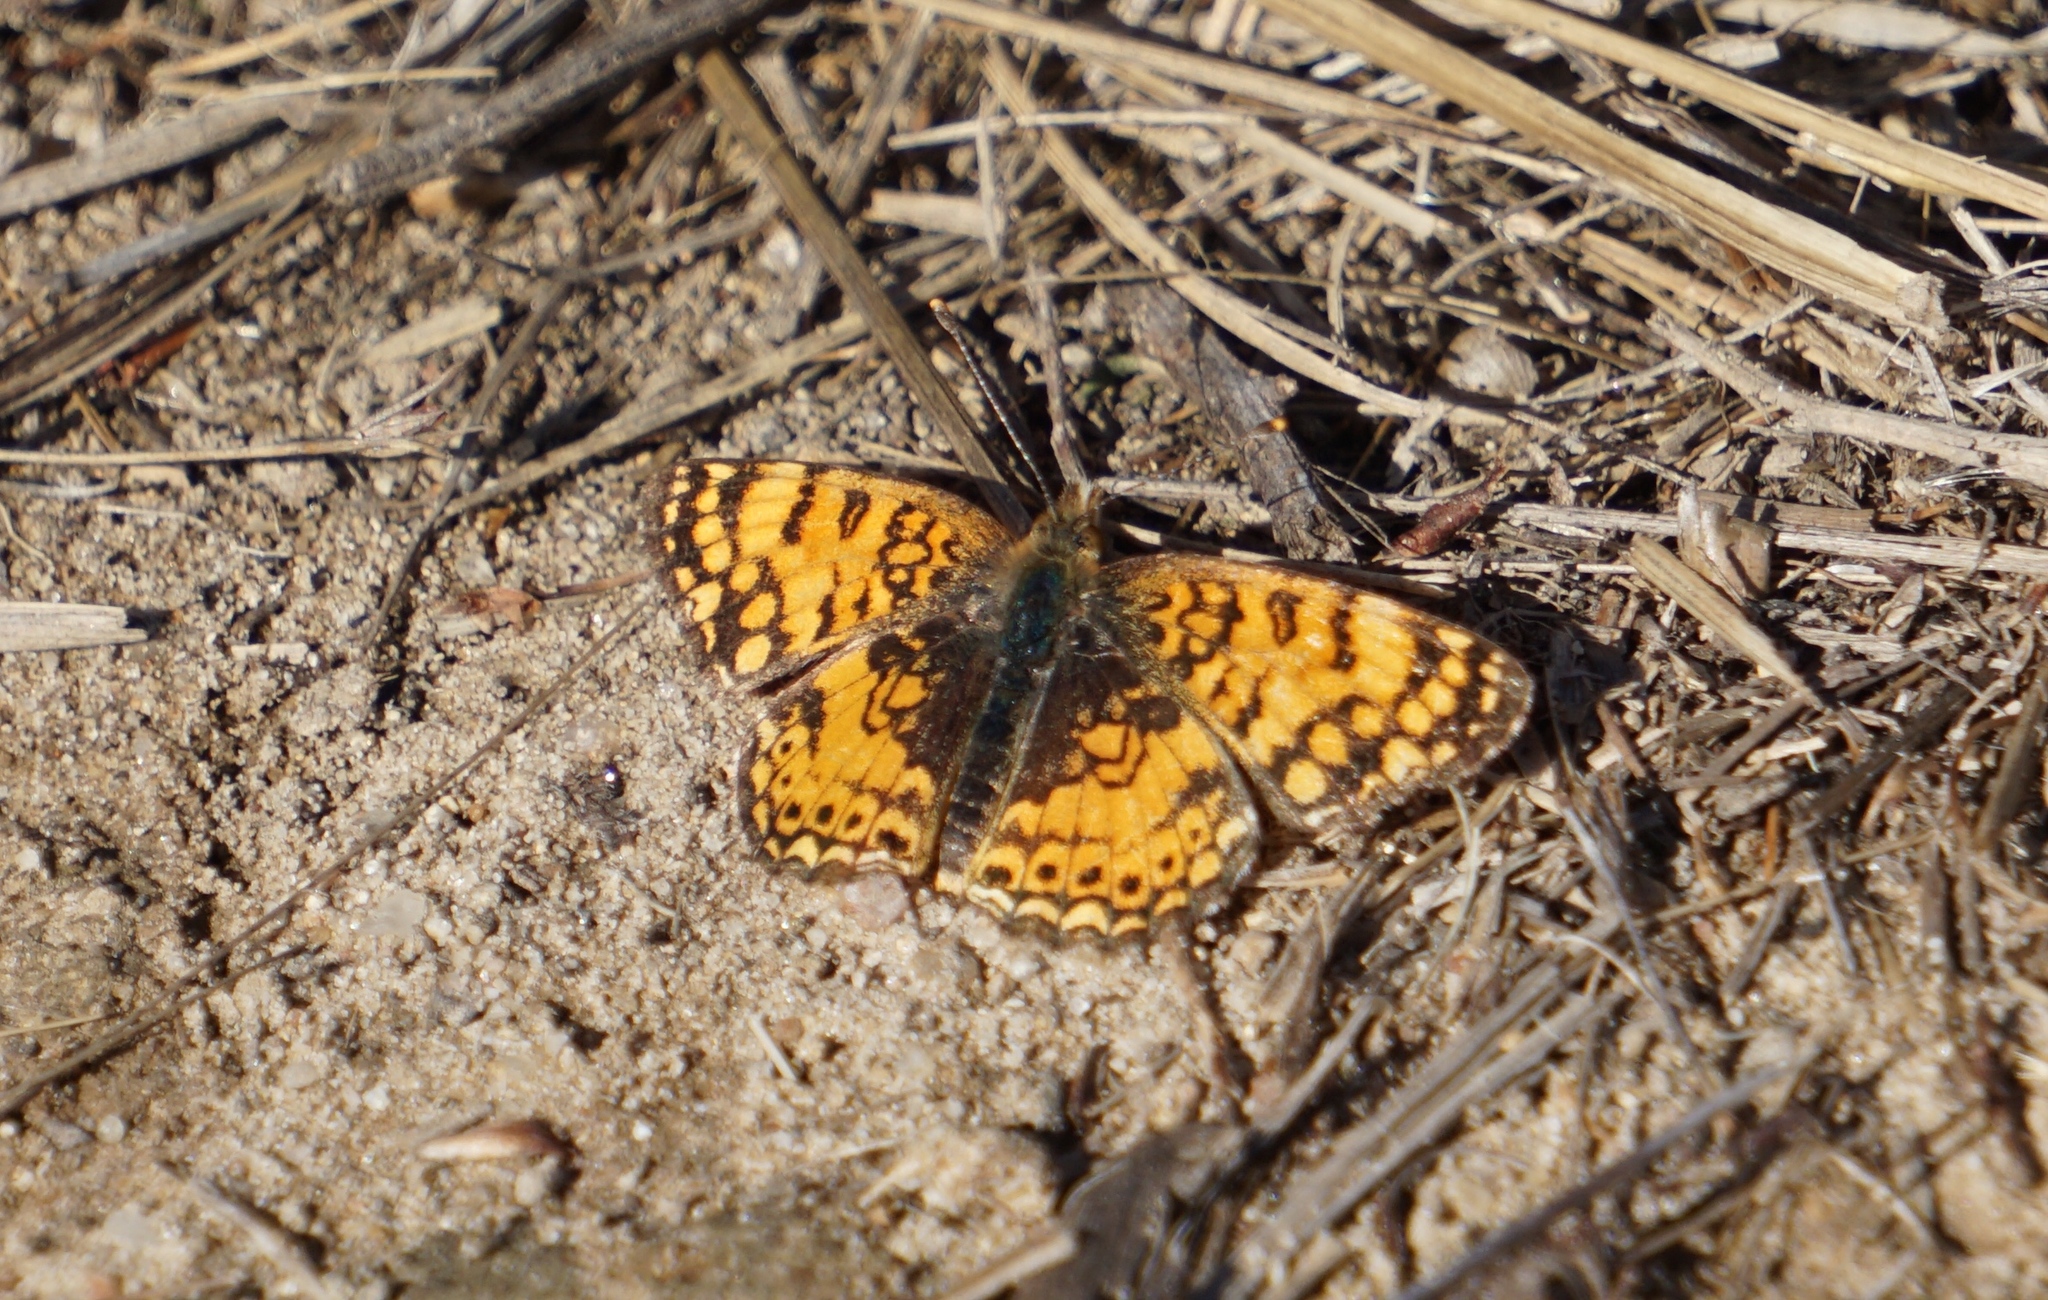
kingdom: Animalia
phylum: Arthropoda
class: Insecta
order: Lepidoptera
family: Nymphalidae
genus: Eresia
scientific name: Eresia aveyrona
